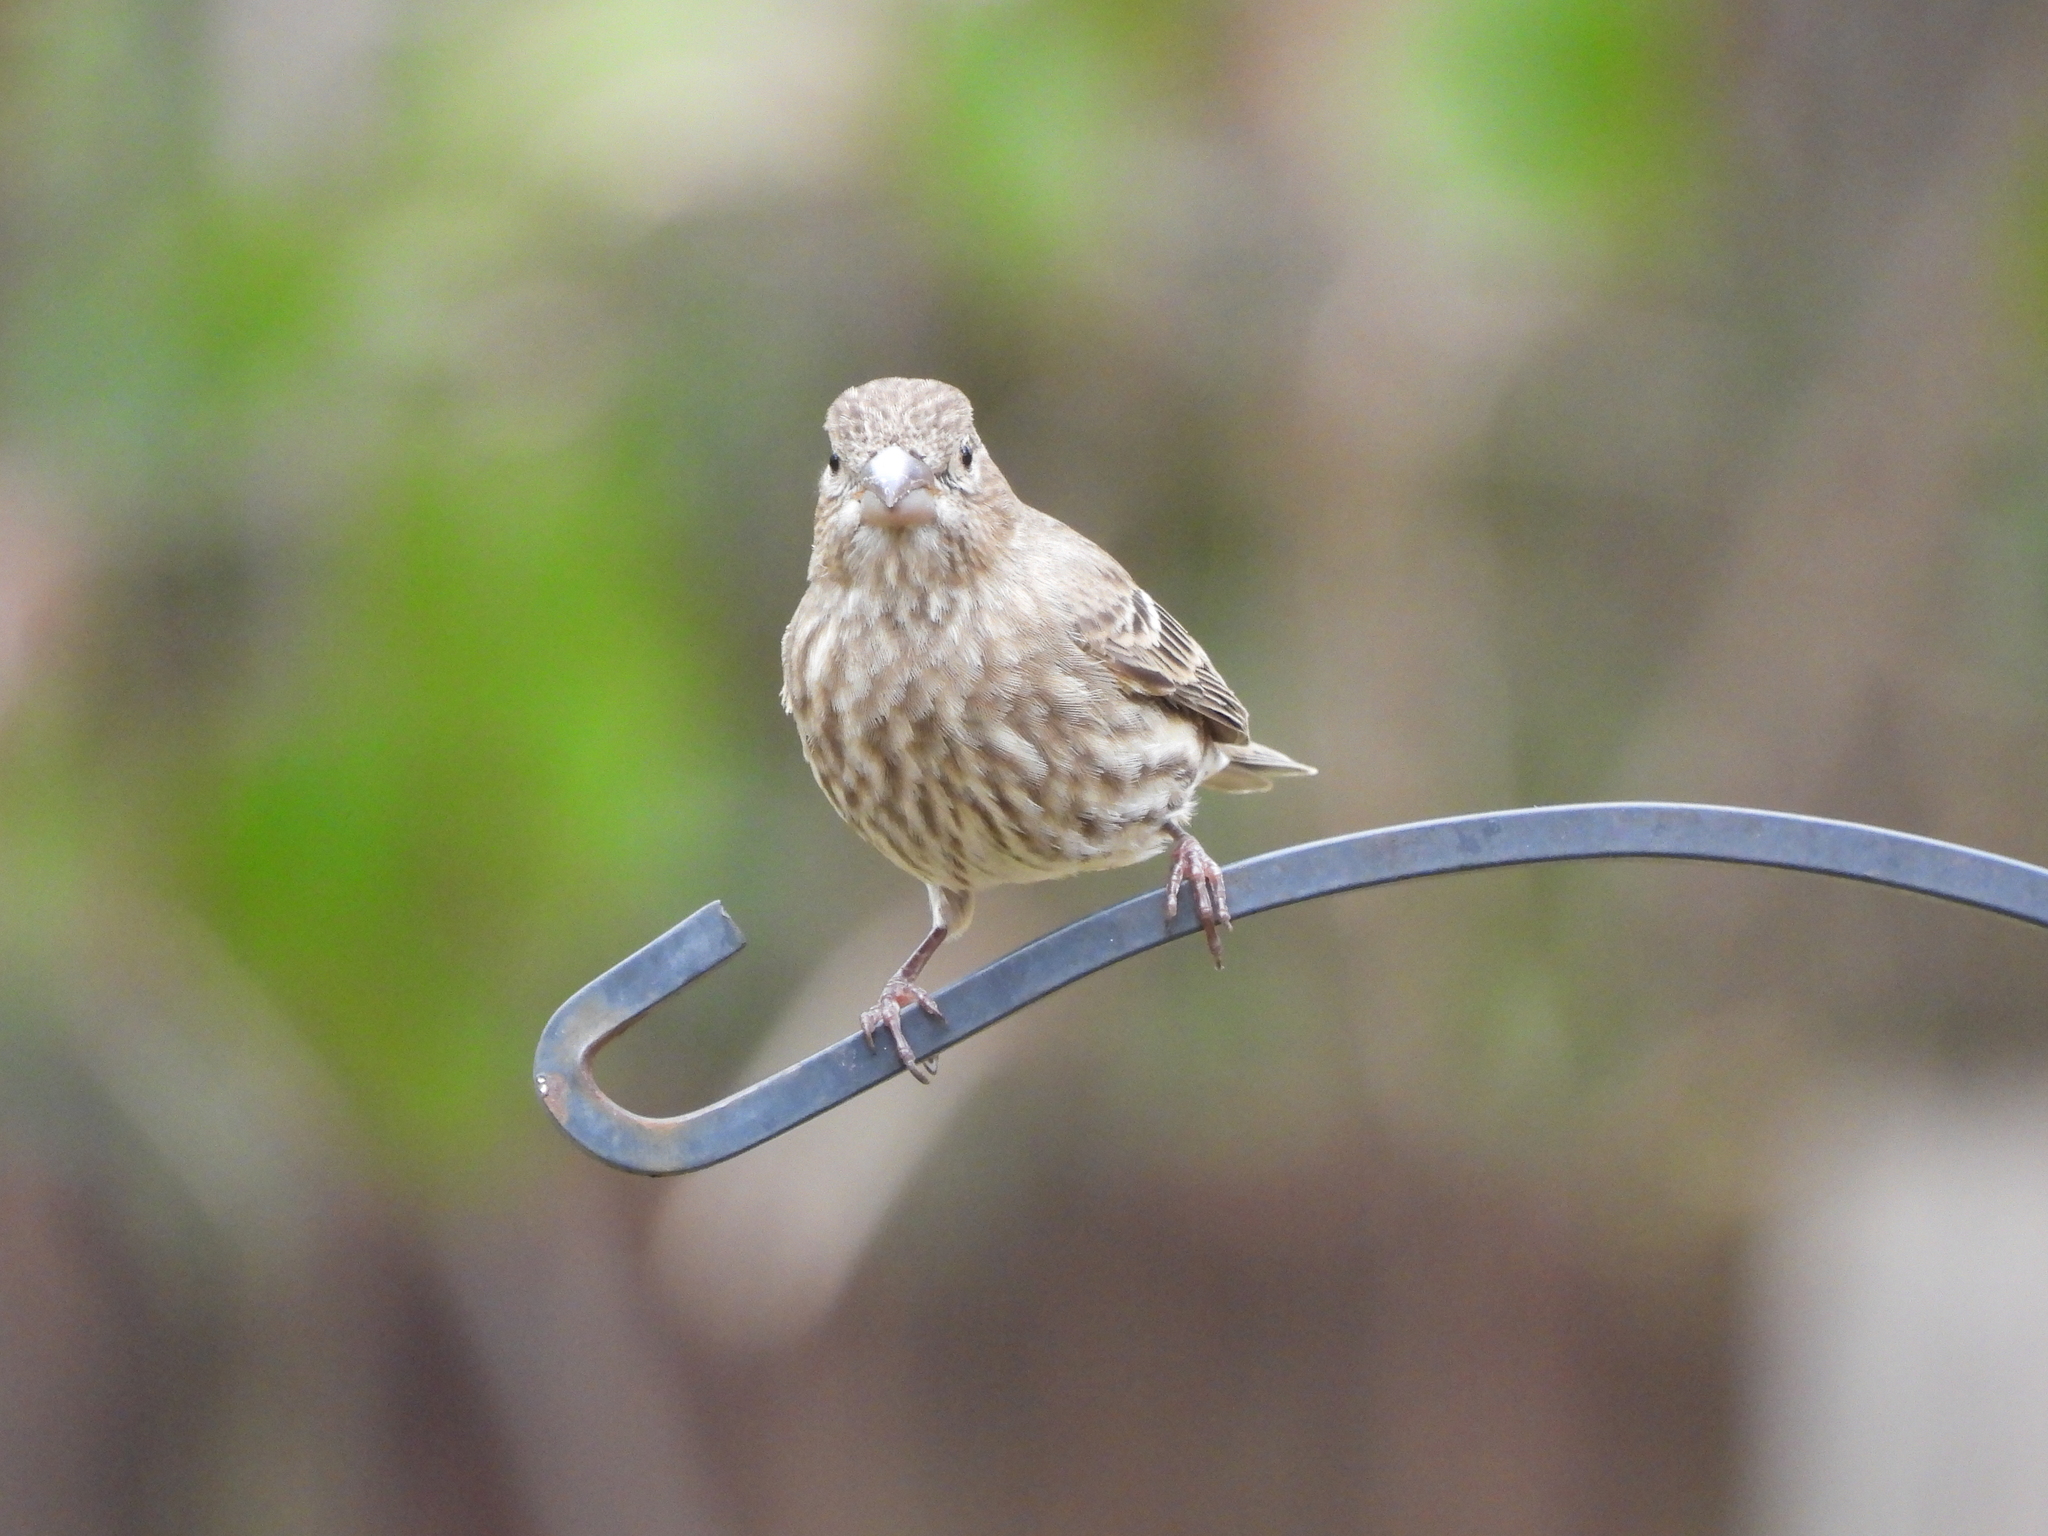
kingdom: Animalia
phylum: Chordata
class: Aves
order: Passeriformes
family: Fringillidae
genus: Haemorhous
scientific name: Haemorhous mexicanus
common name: House finch
